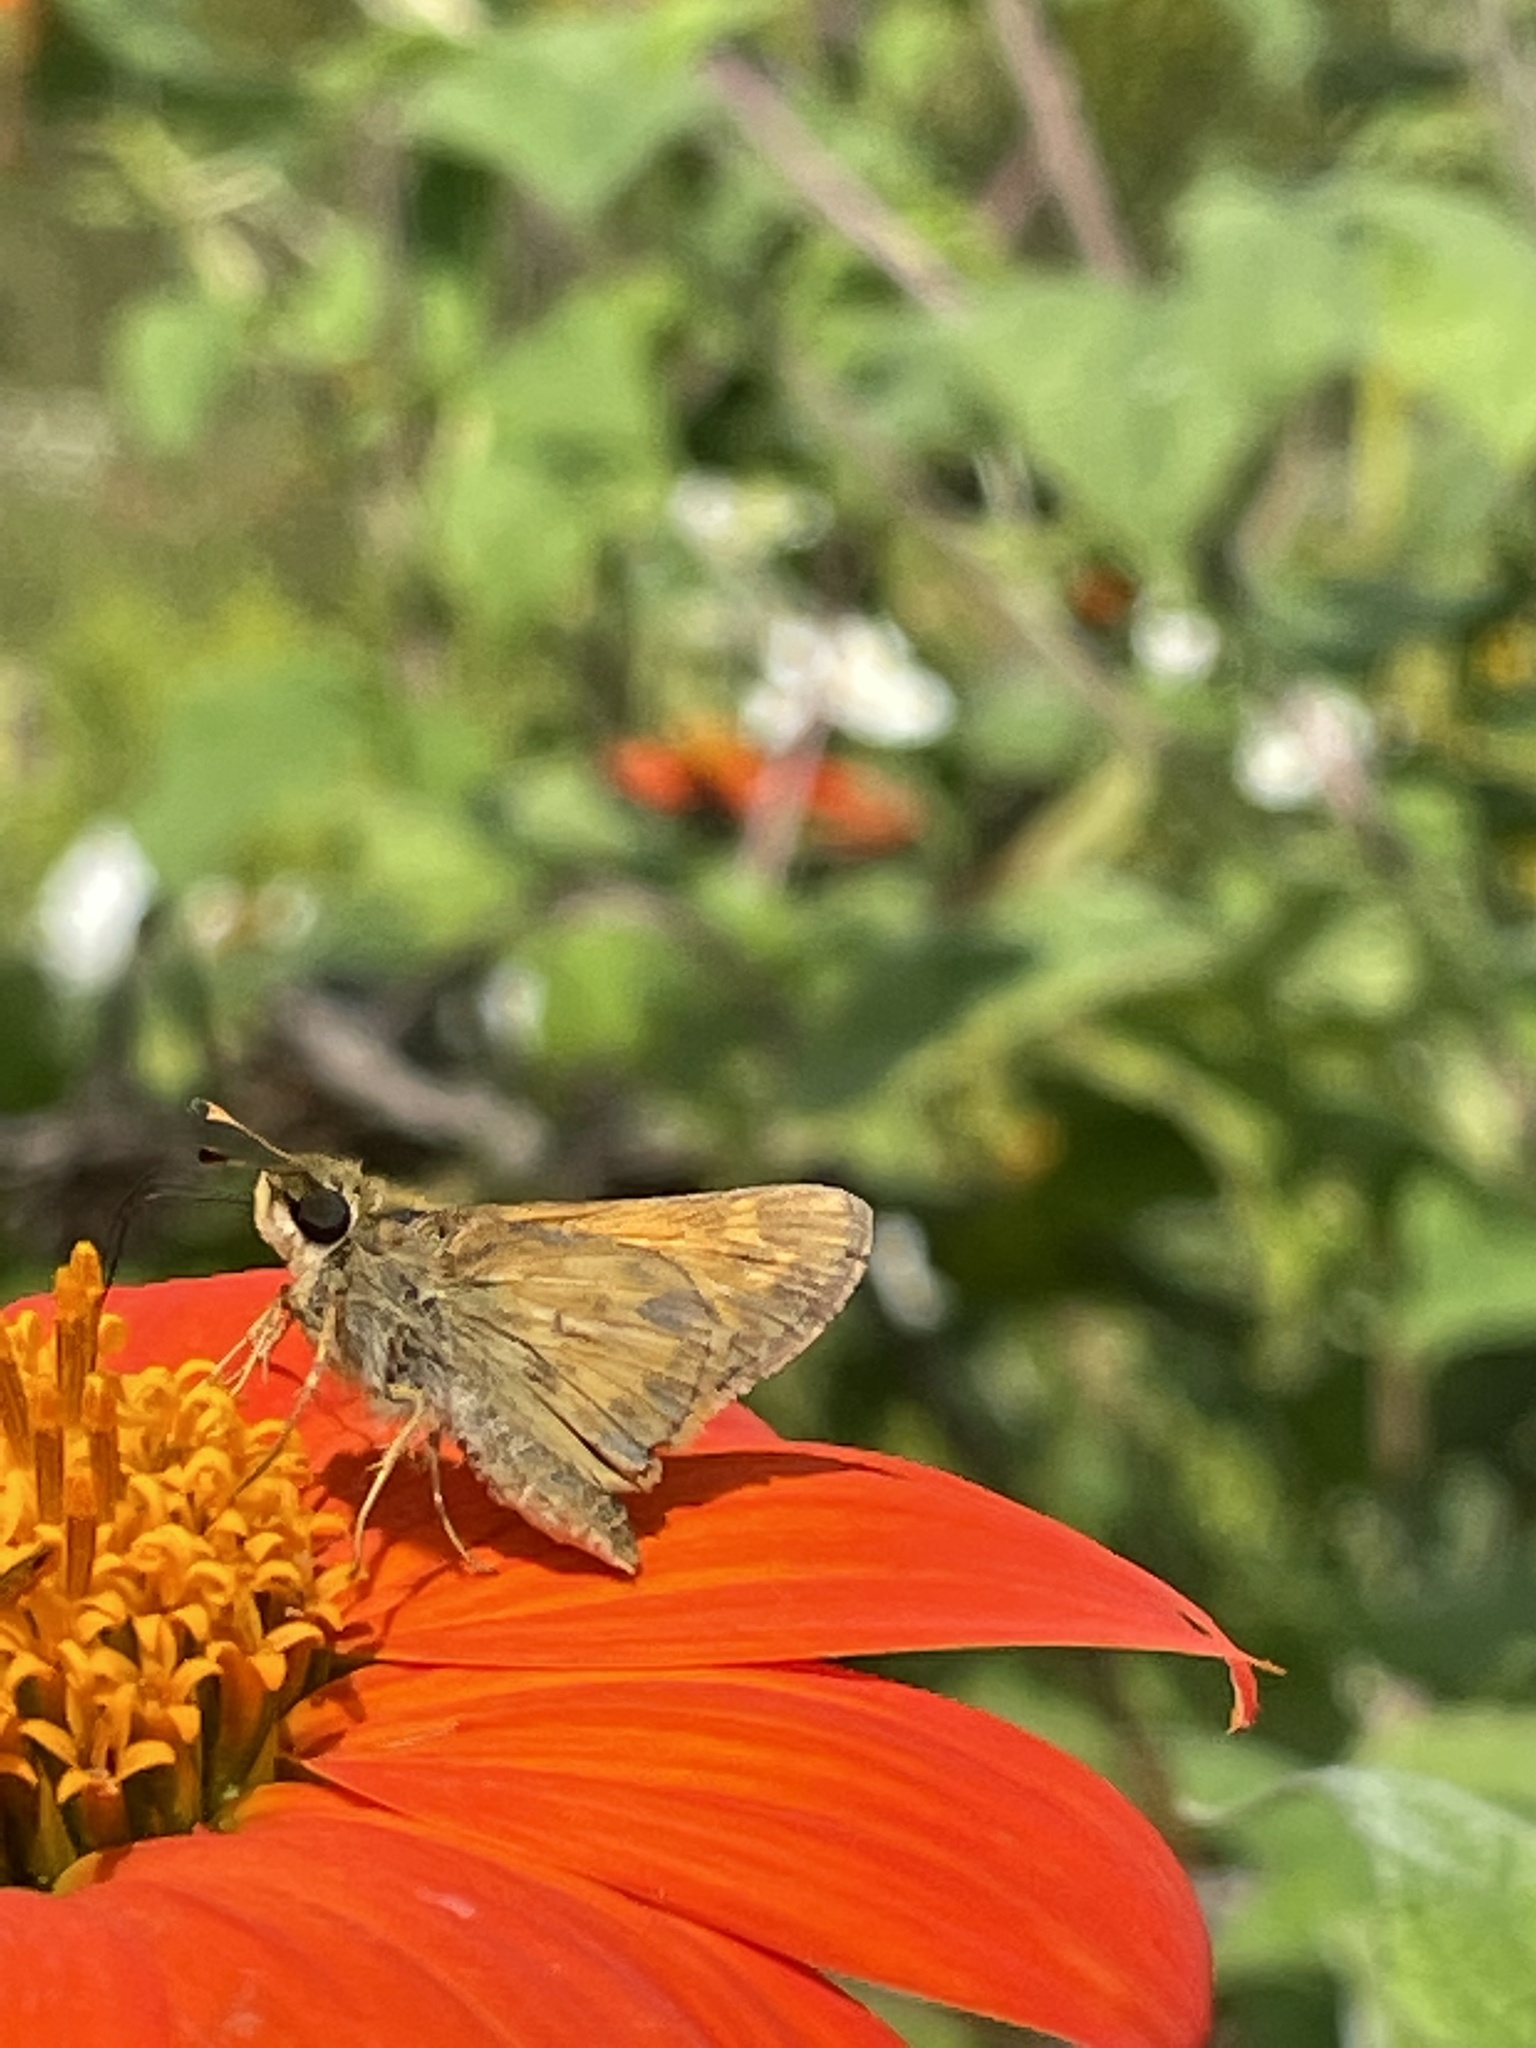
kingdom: Animalia
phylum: Arthropoda
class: Insecta
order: Lepidoptera
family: Hesperiidae
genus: Atalopedes
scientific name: Atalopedes
